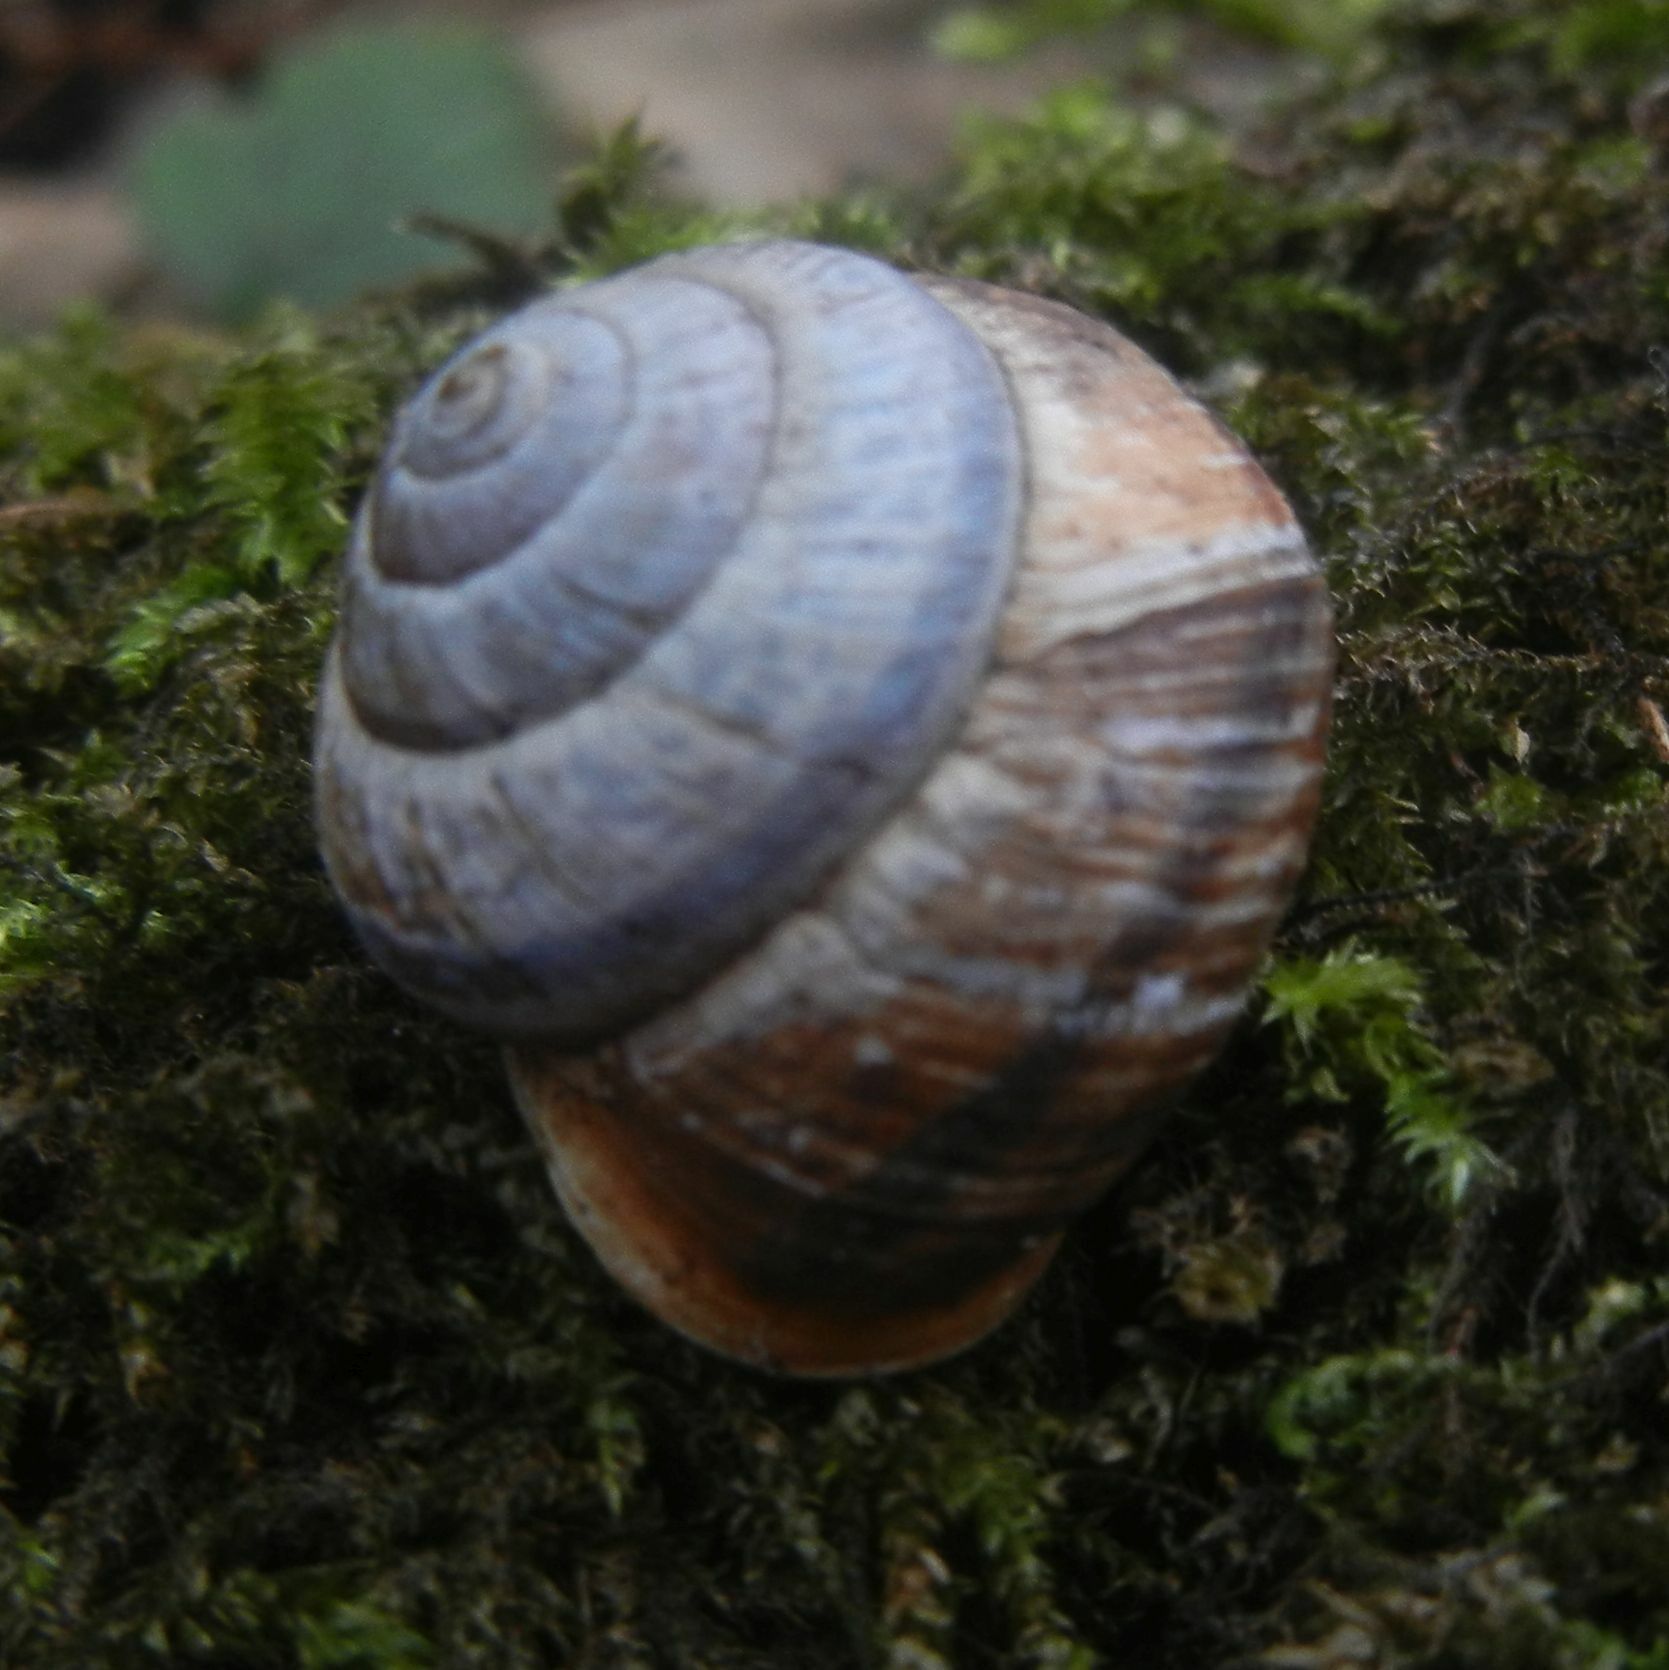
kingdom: Animalia
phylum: Mollusca
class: Gastropoda
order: Stylommatophora
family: Helicidae
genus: Arianta
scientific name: Arianta arbustorum
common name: Copse snail
